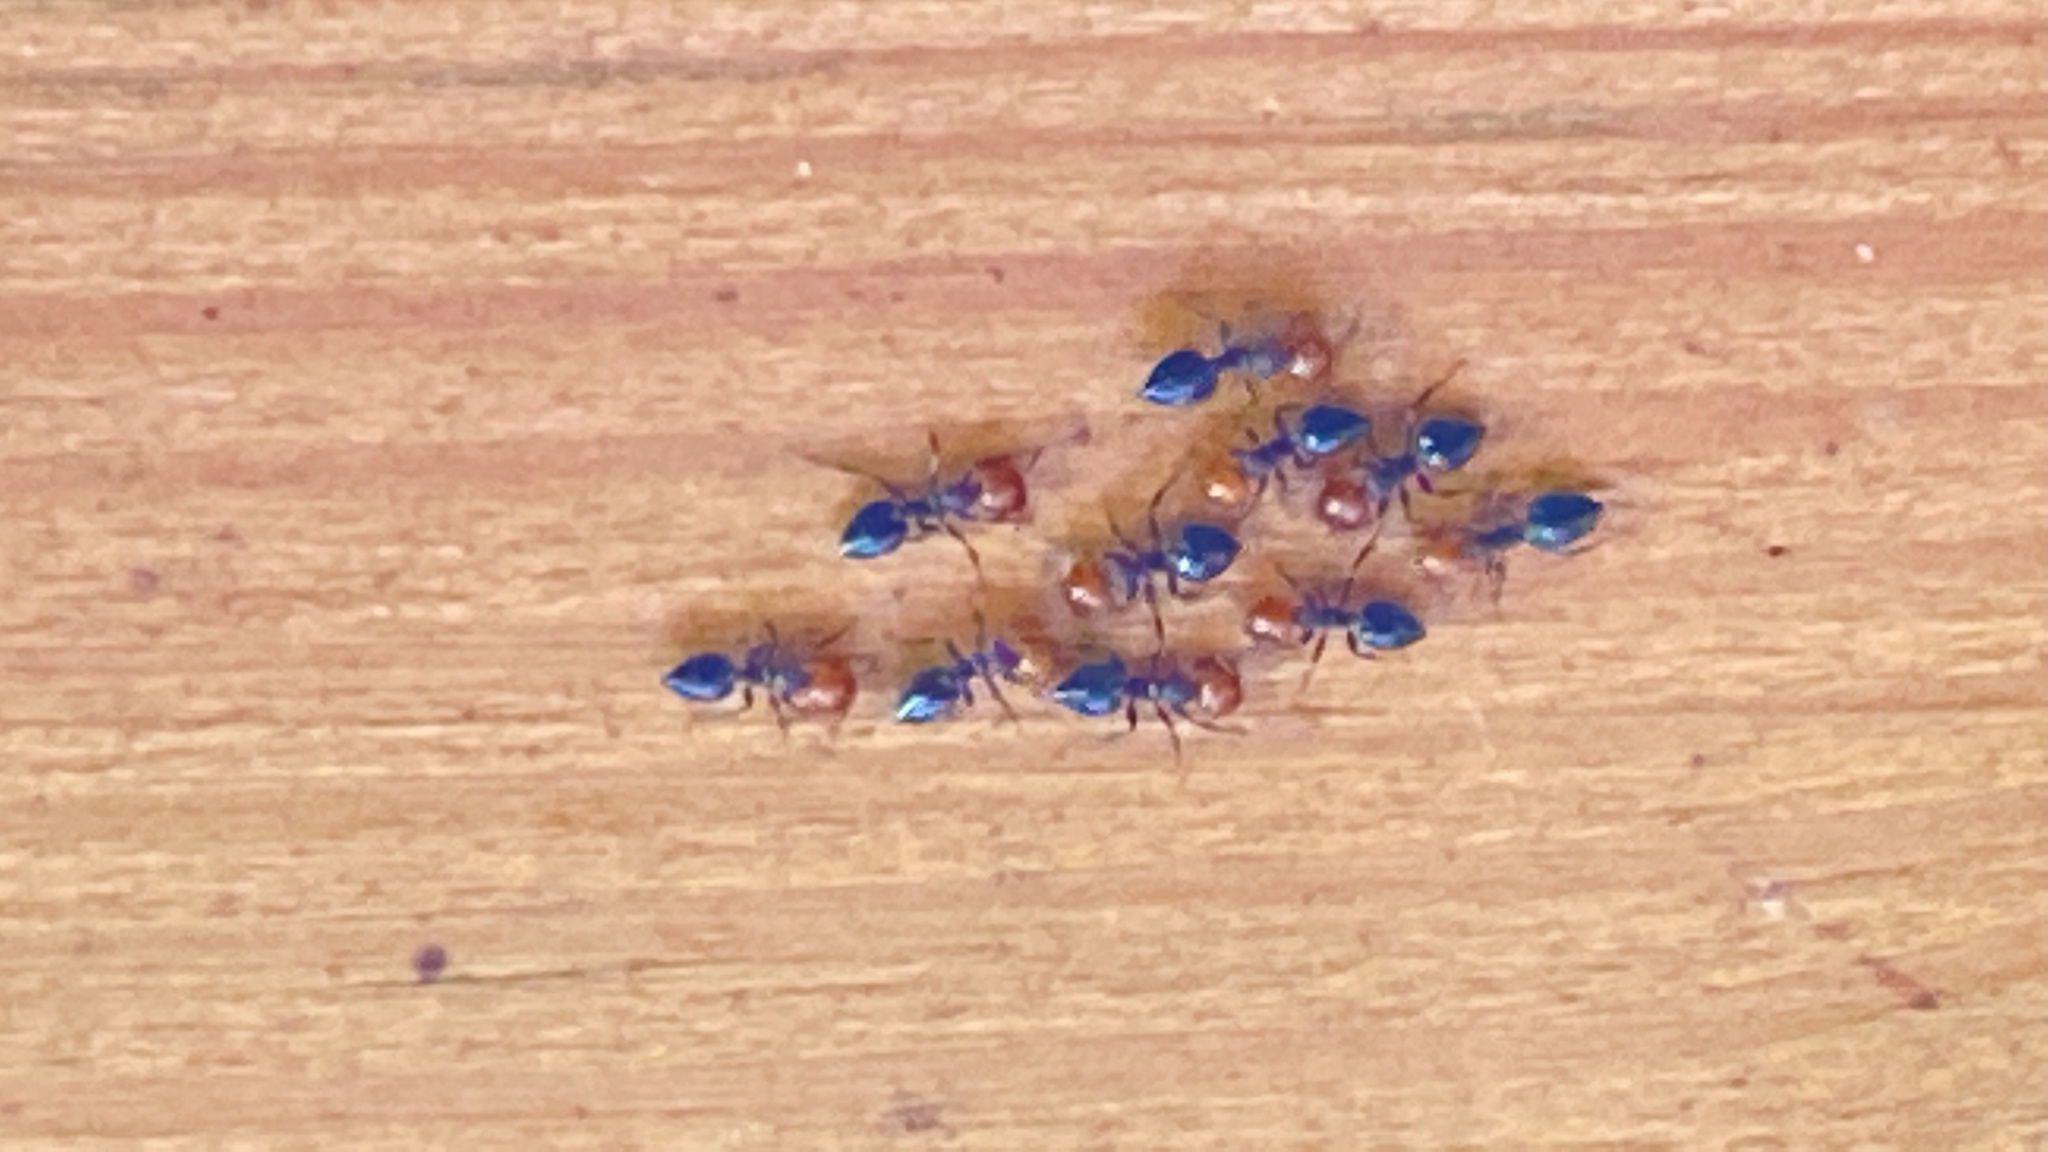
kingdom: Animalia
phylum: Arthropoda
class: Insecta
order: Hymenoptera
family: Formicidae
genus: Crematogaster
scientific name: Crematogaster scutellaris
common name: Fourmi du liège
